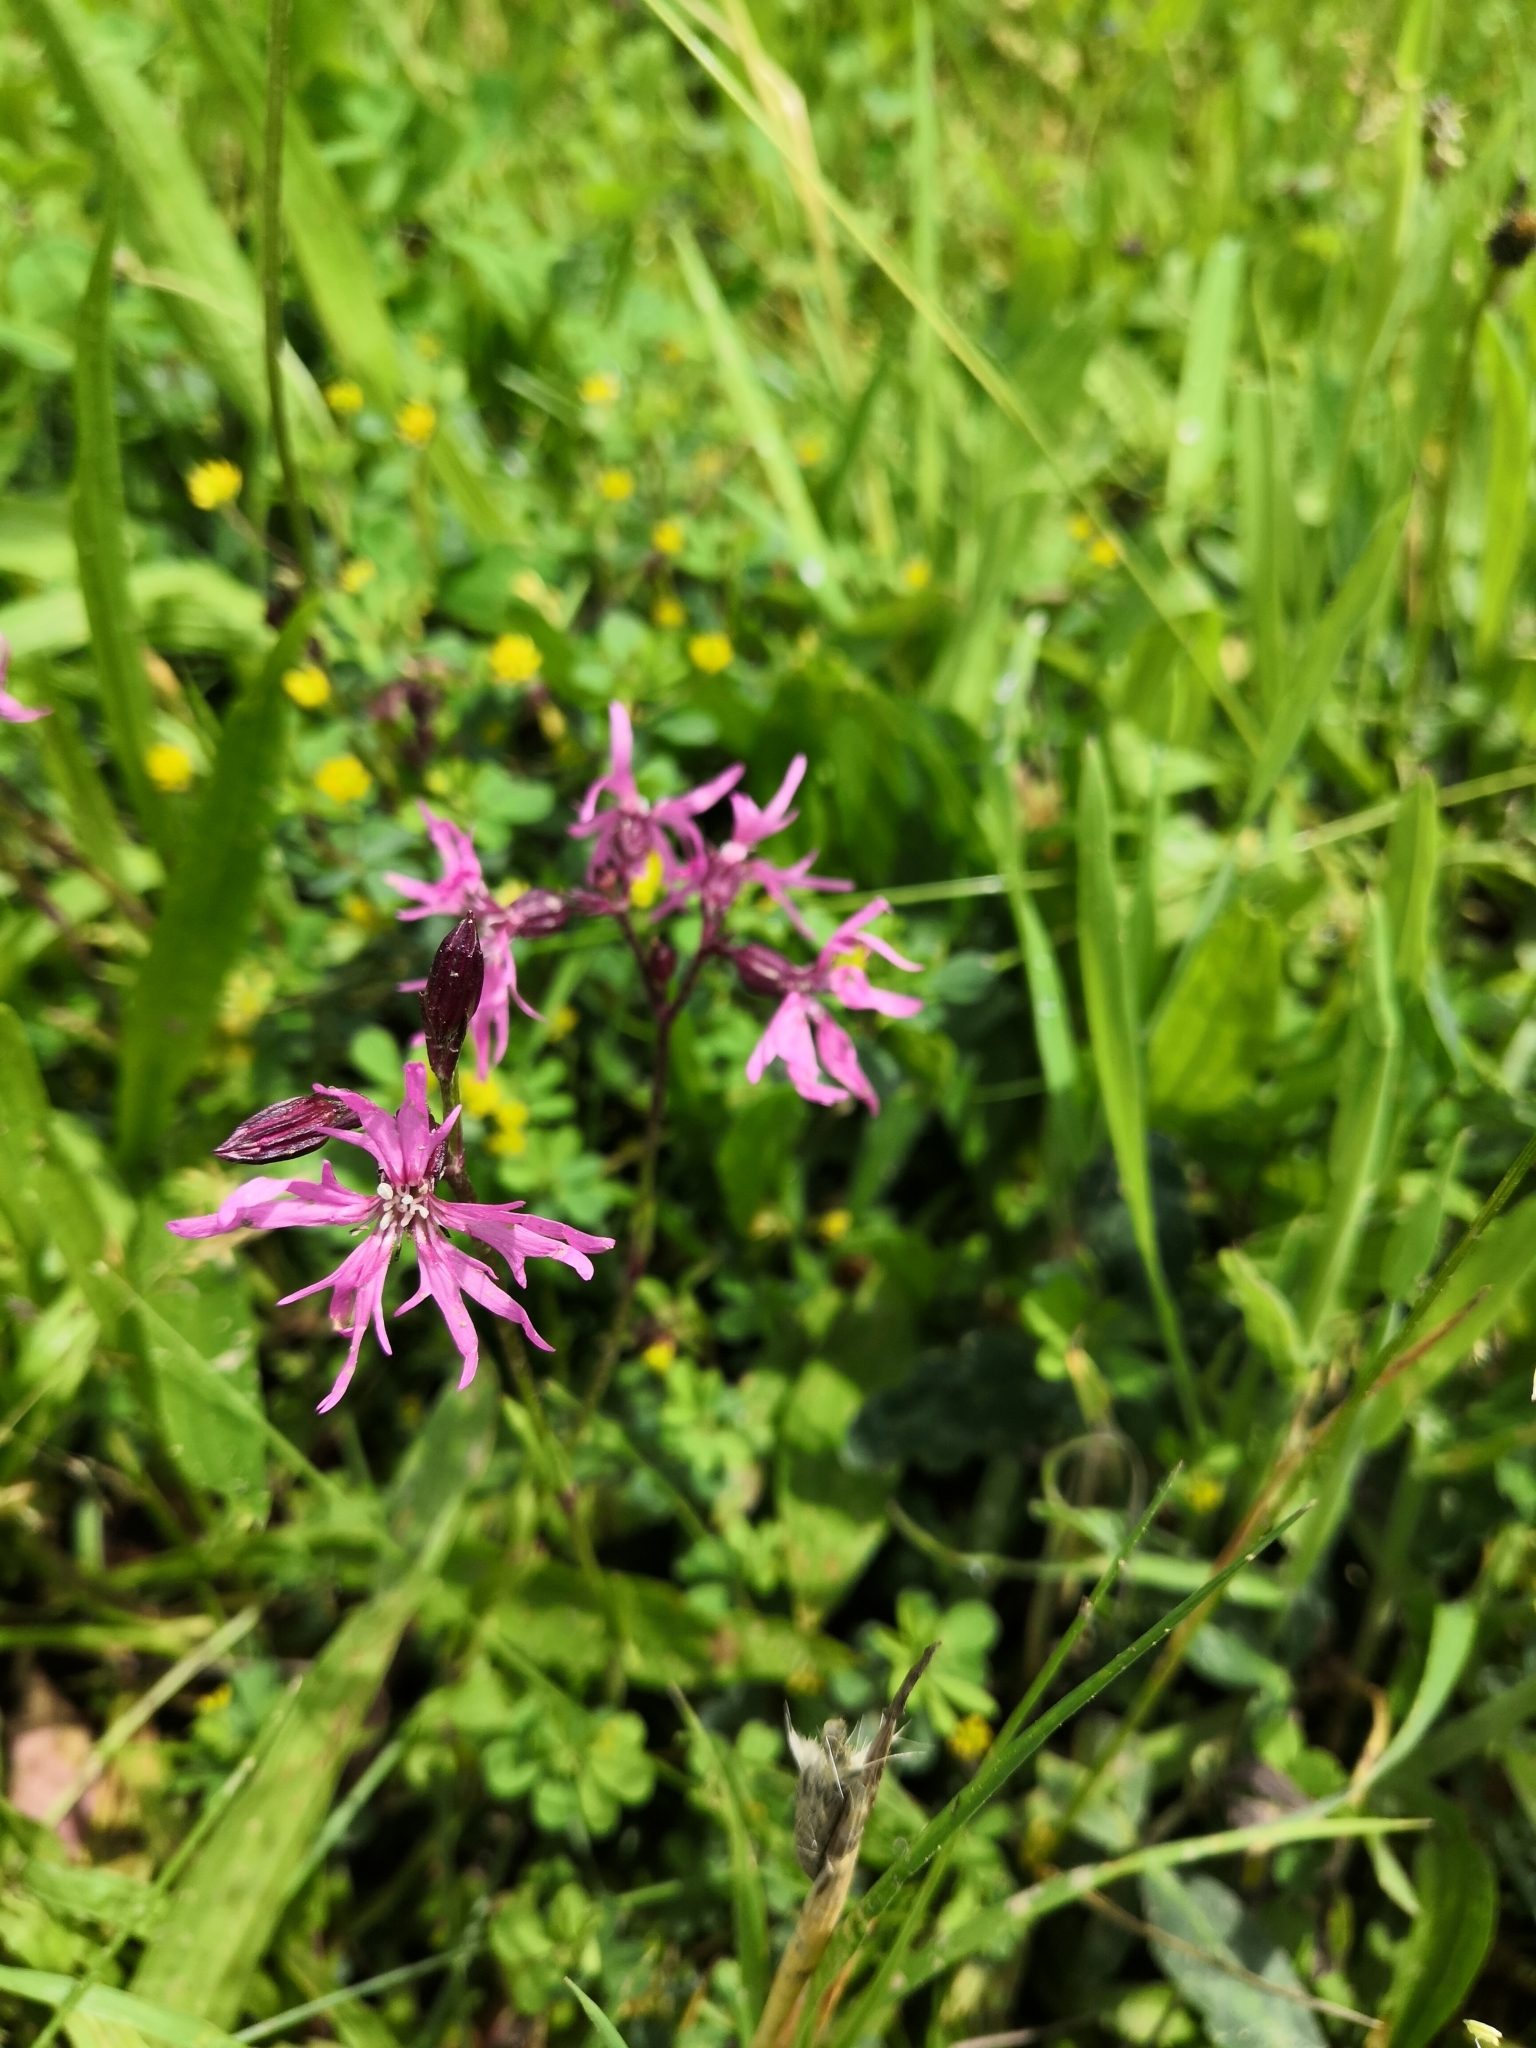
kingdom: Plantae
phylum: Tracheophyta
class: Magnoliopsida
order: Caryophyllales
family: Caryophyllaceae
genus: Silene
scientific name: Silene flos-cuculi
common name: Ragged-robin
